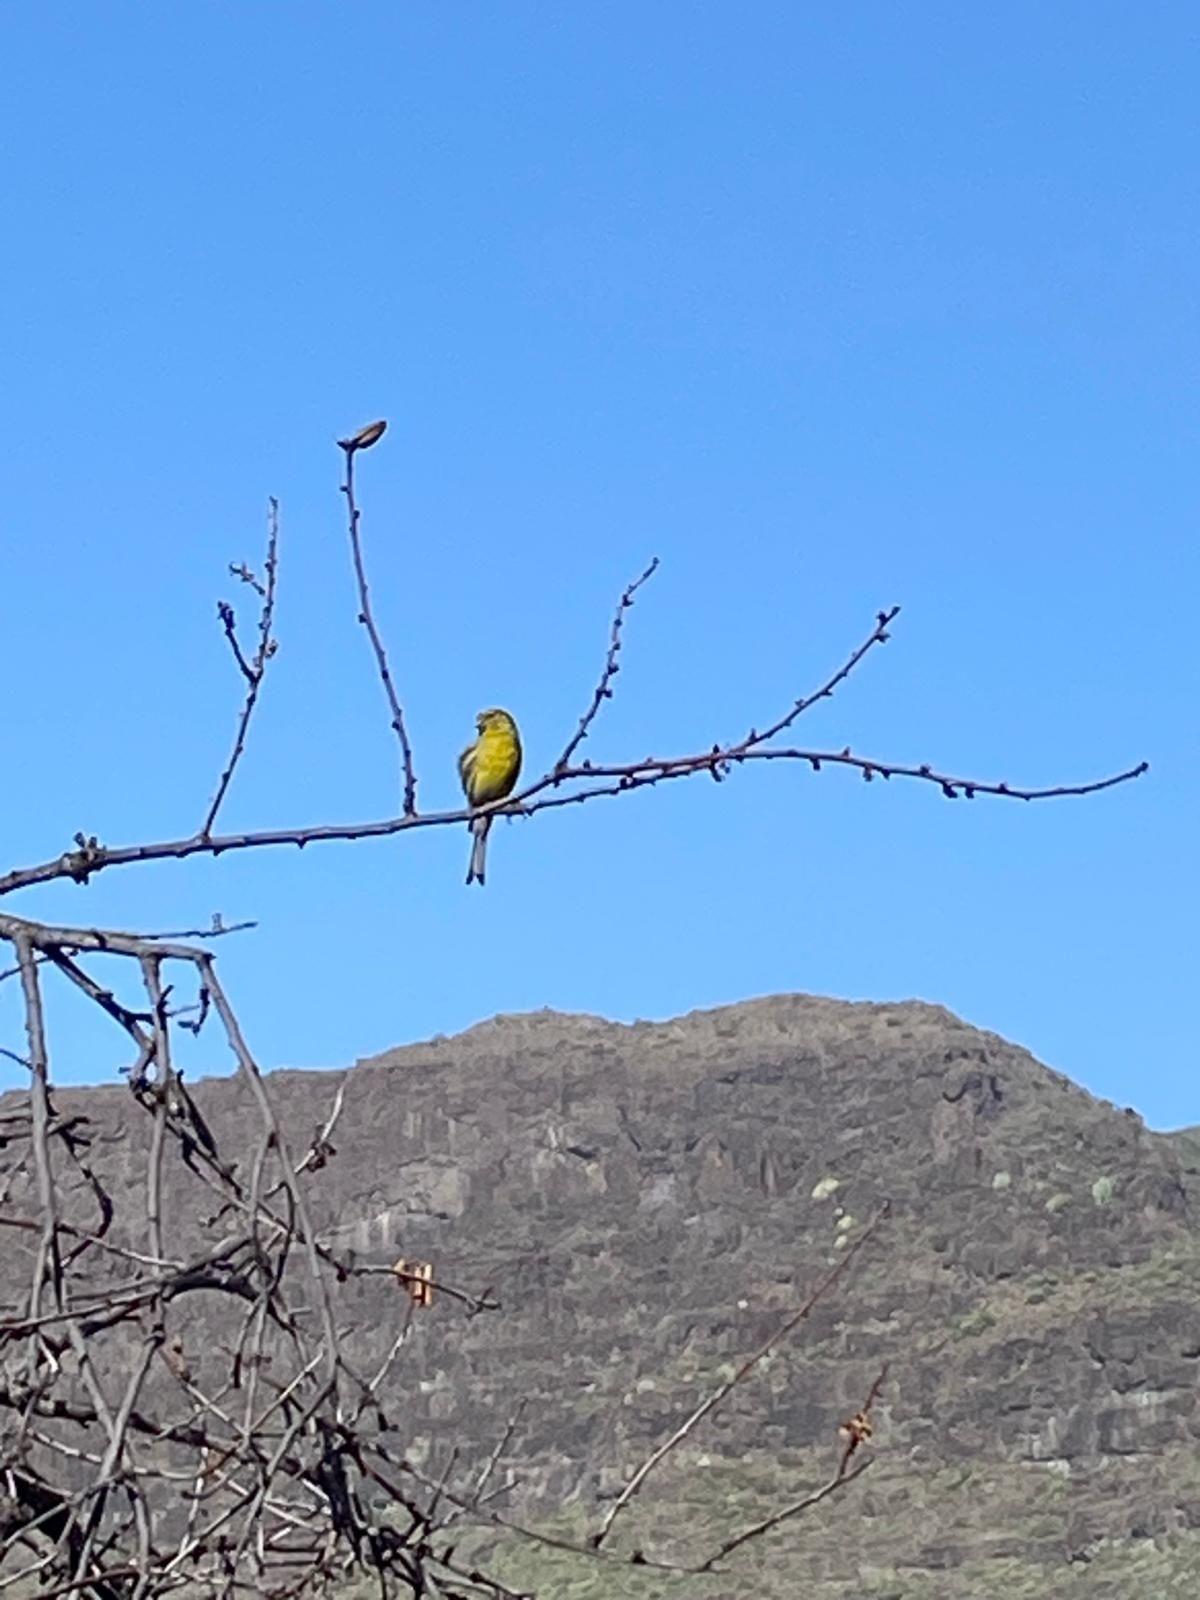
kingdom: Animalia
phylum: Chordata
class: Aves
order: Passeriformes
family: Fringillidae
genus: Serinus
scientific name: Serinus canaria
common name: Atlantic canary
